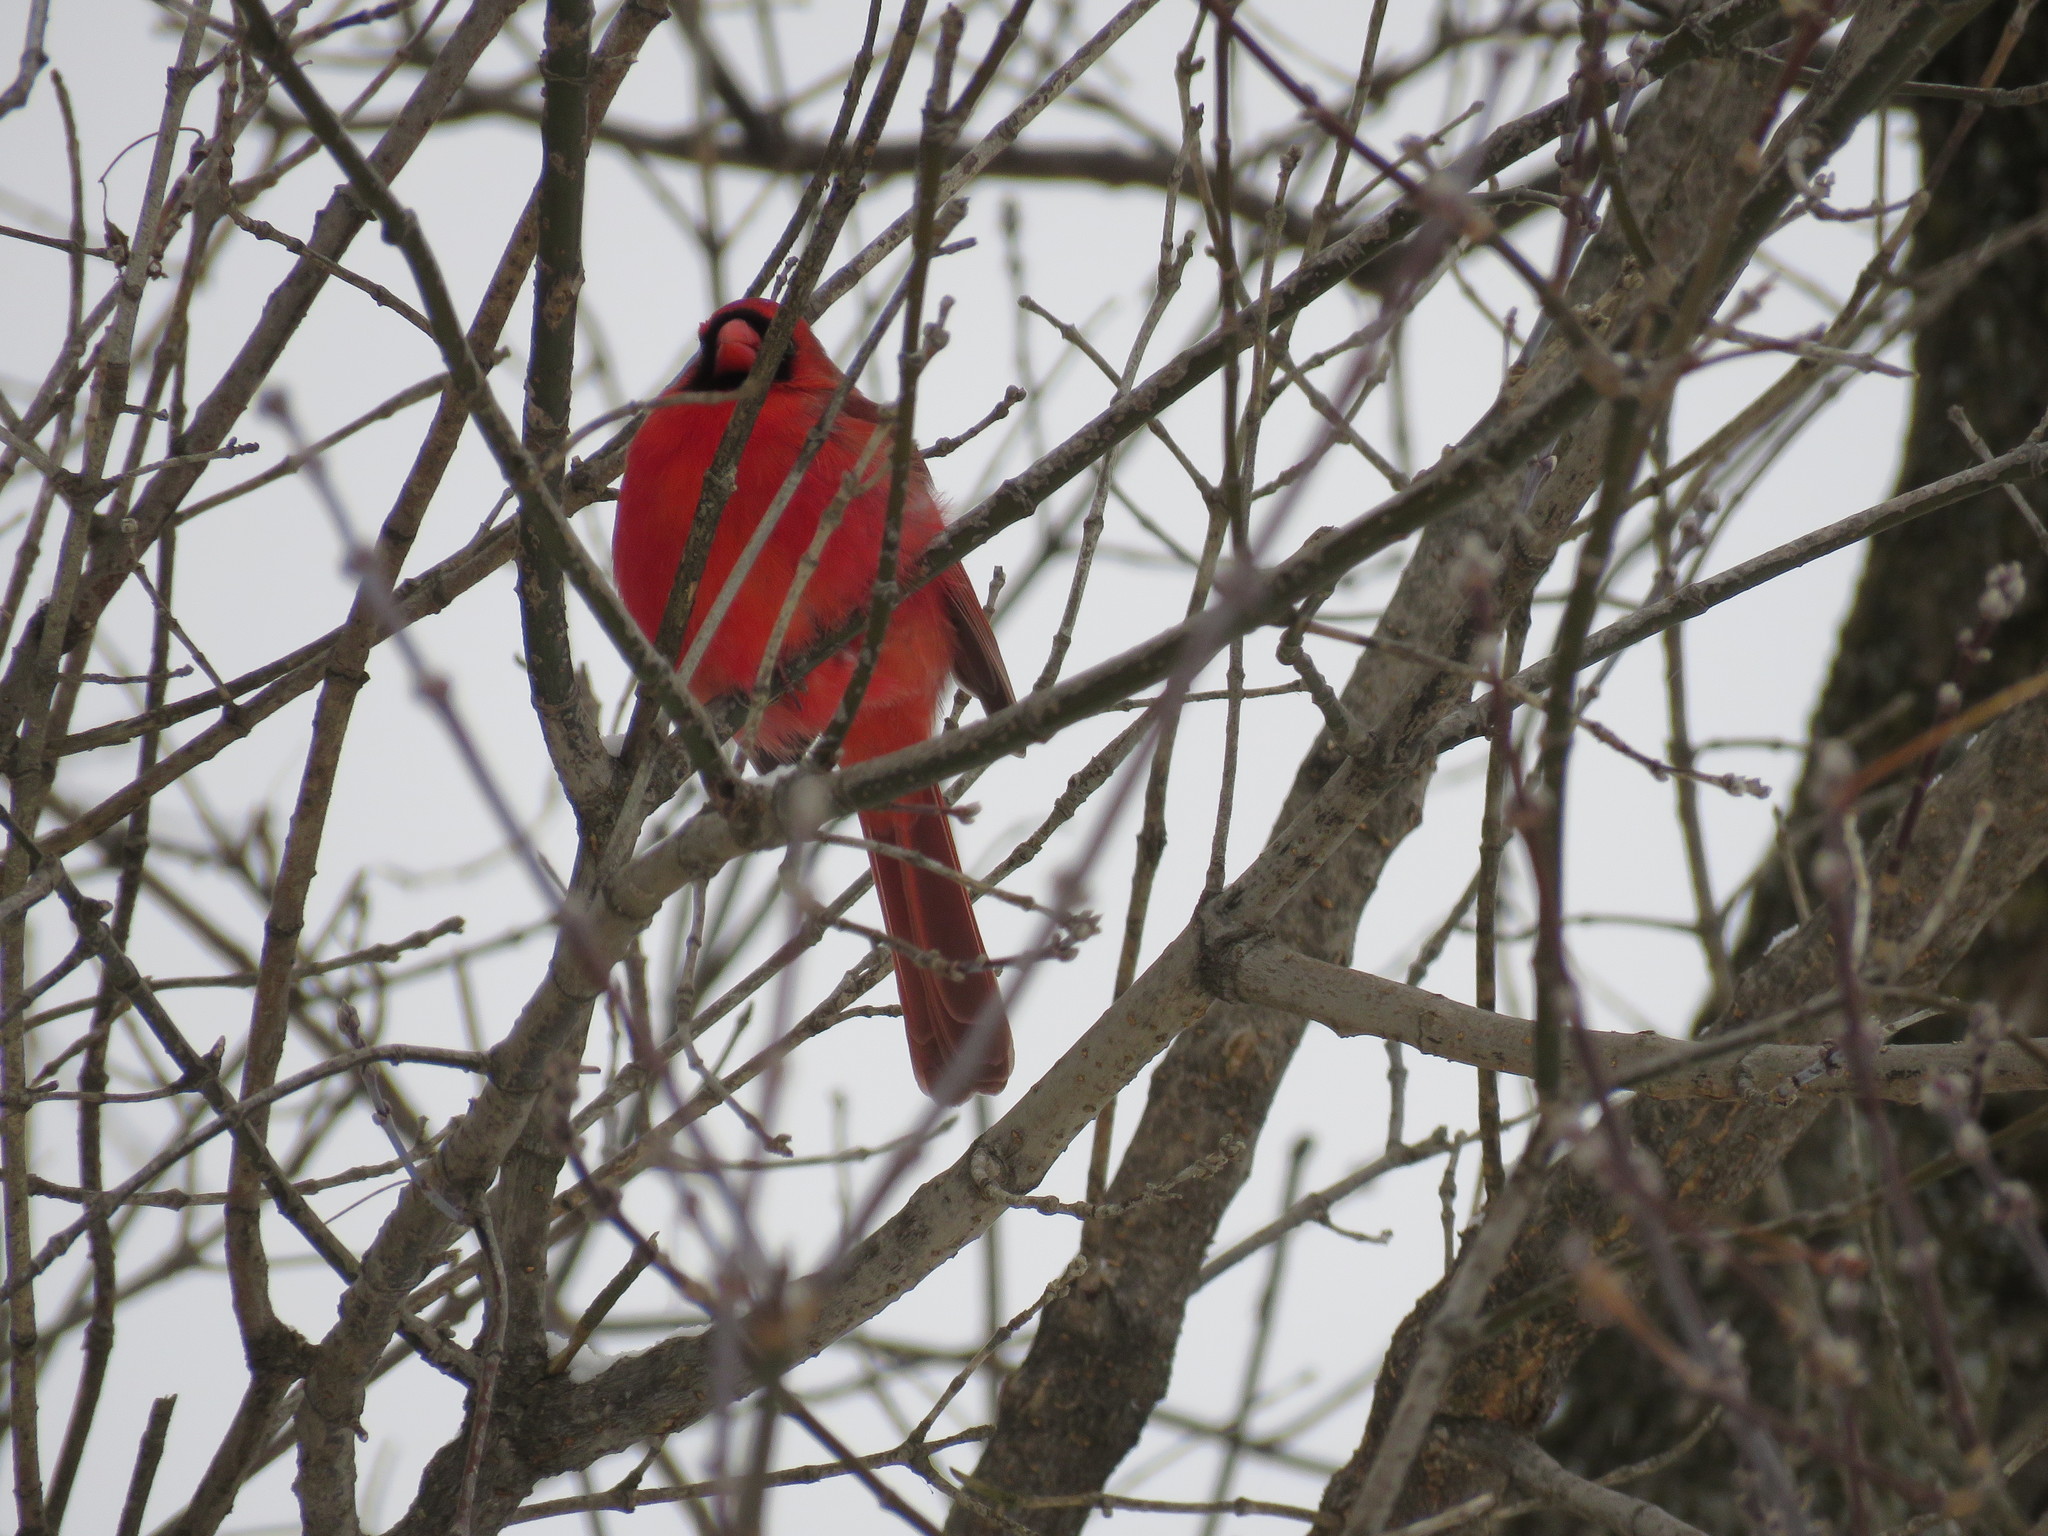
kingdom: Animalia
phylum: Chordata
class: Aves
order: Passeriformes
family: Cardinalidae
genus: Cardinalis
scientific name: Cardinalis cardinalis
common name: Northern cardinal
